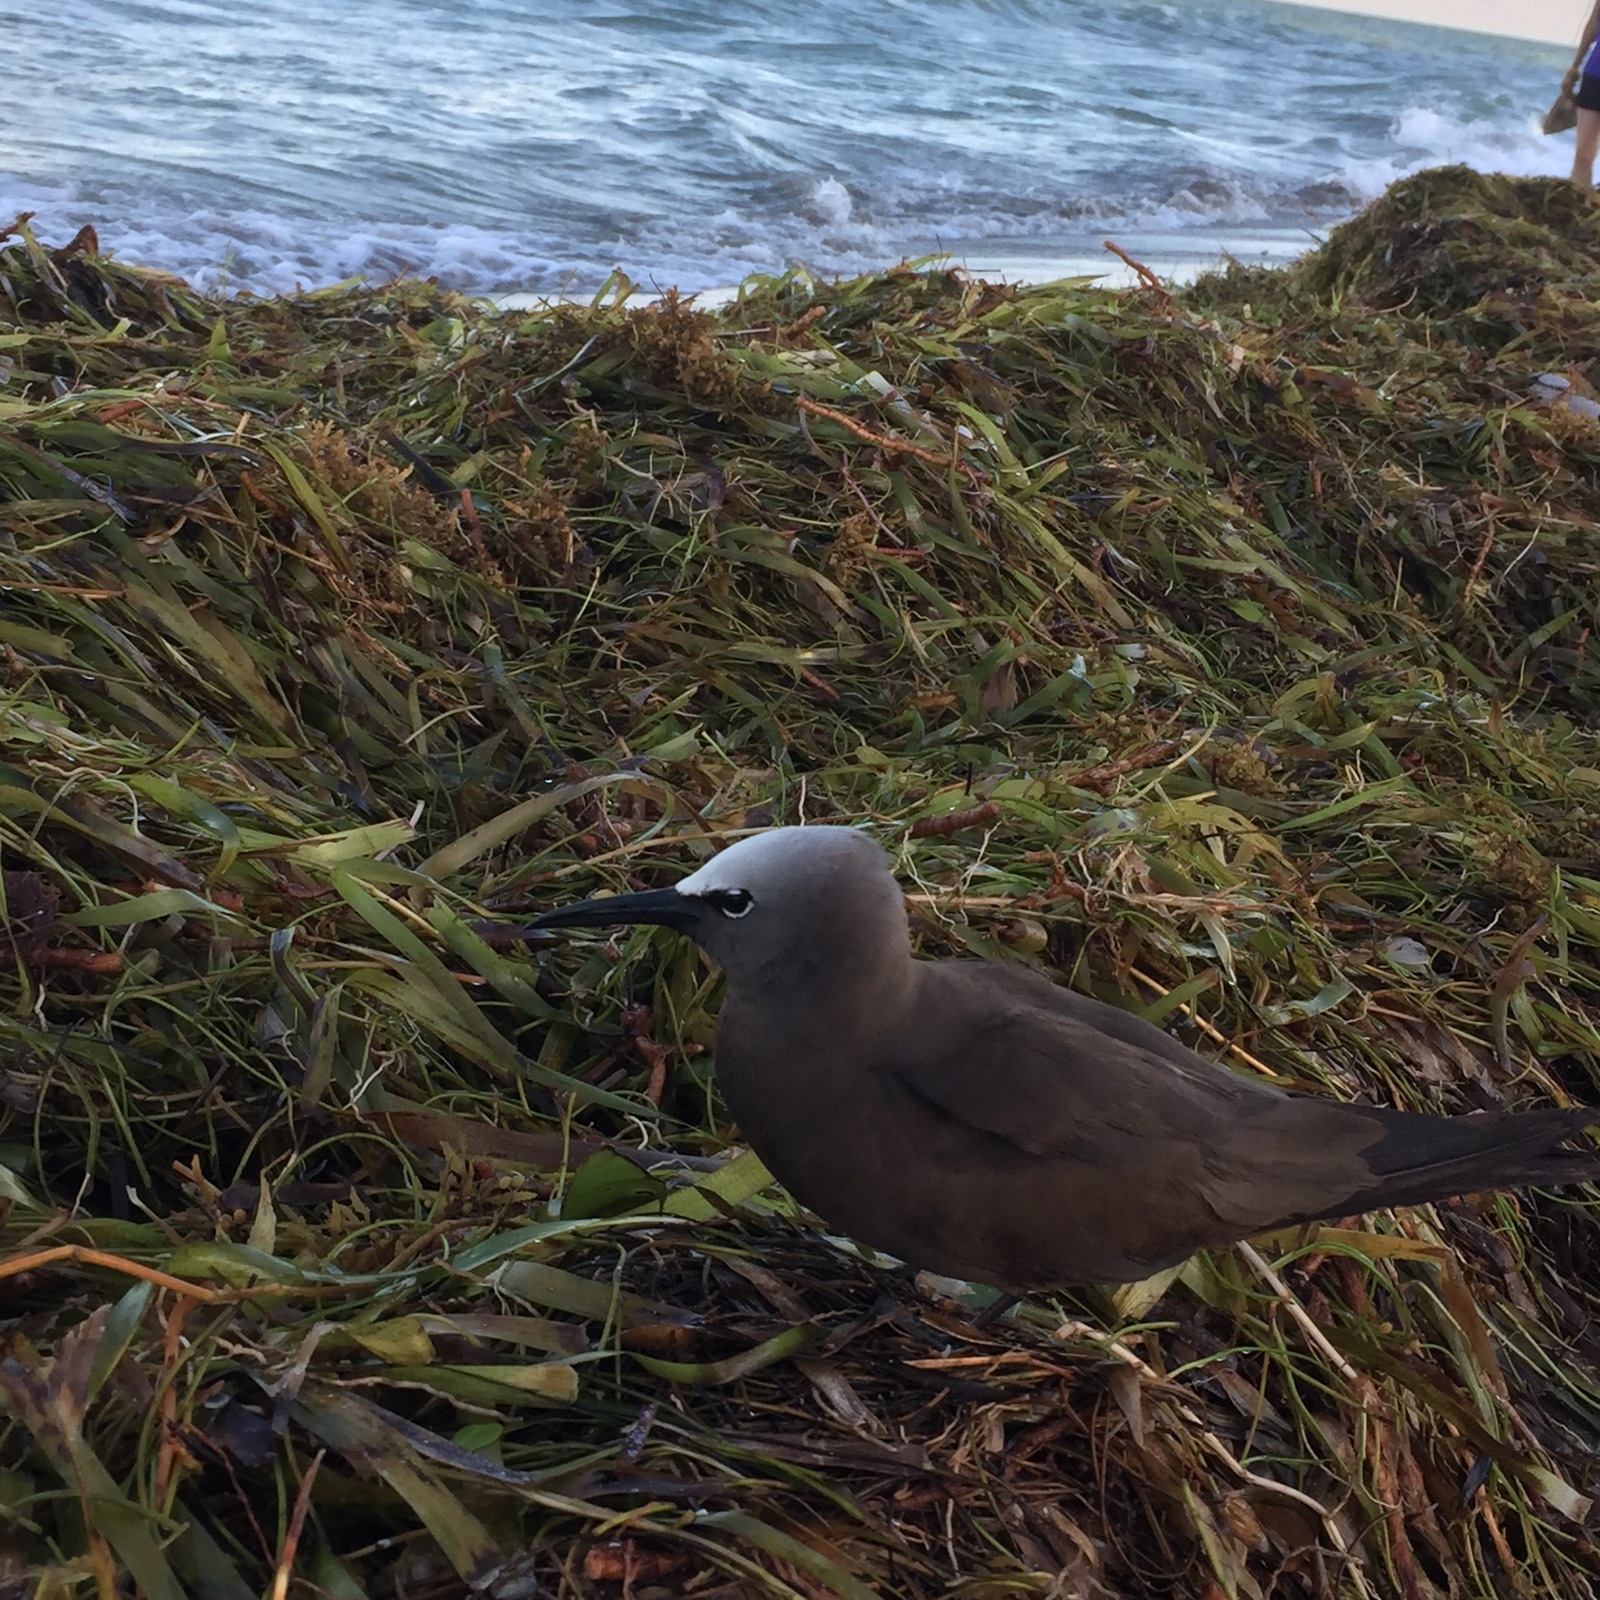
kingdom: Animalia
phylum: Chordata
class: Aves
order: Charadriiformes
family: Laridae
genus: Anous
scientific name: Anous stolidus
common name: Brown noddy
